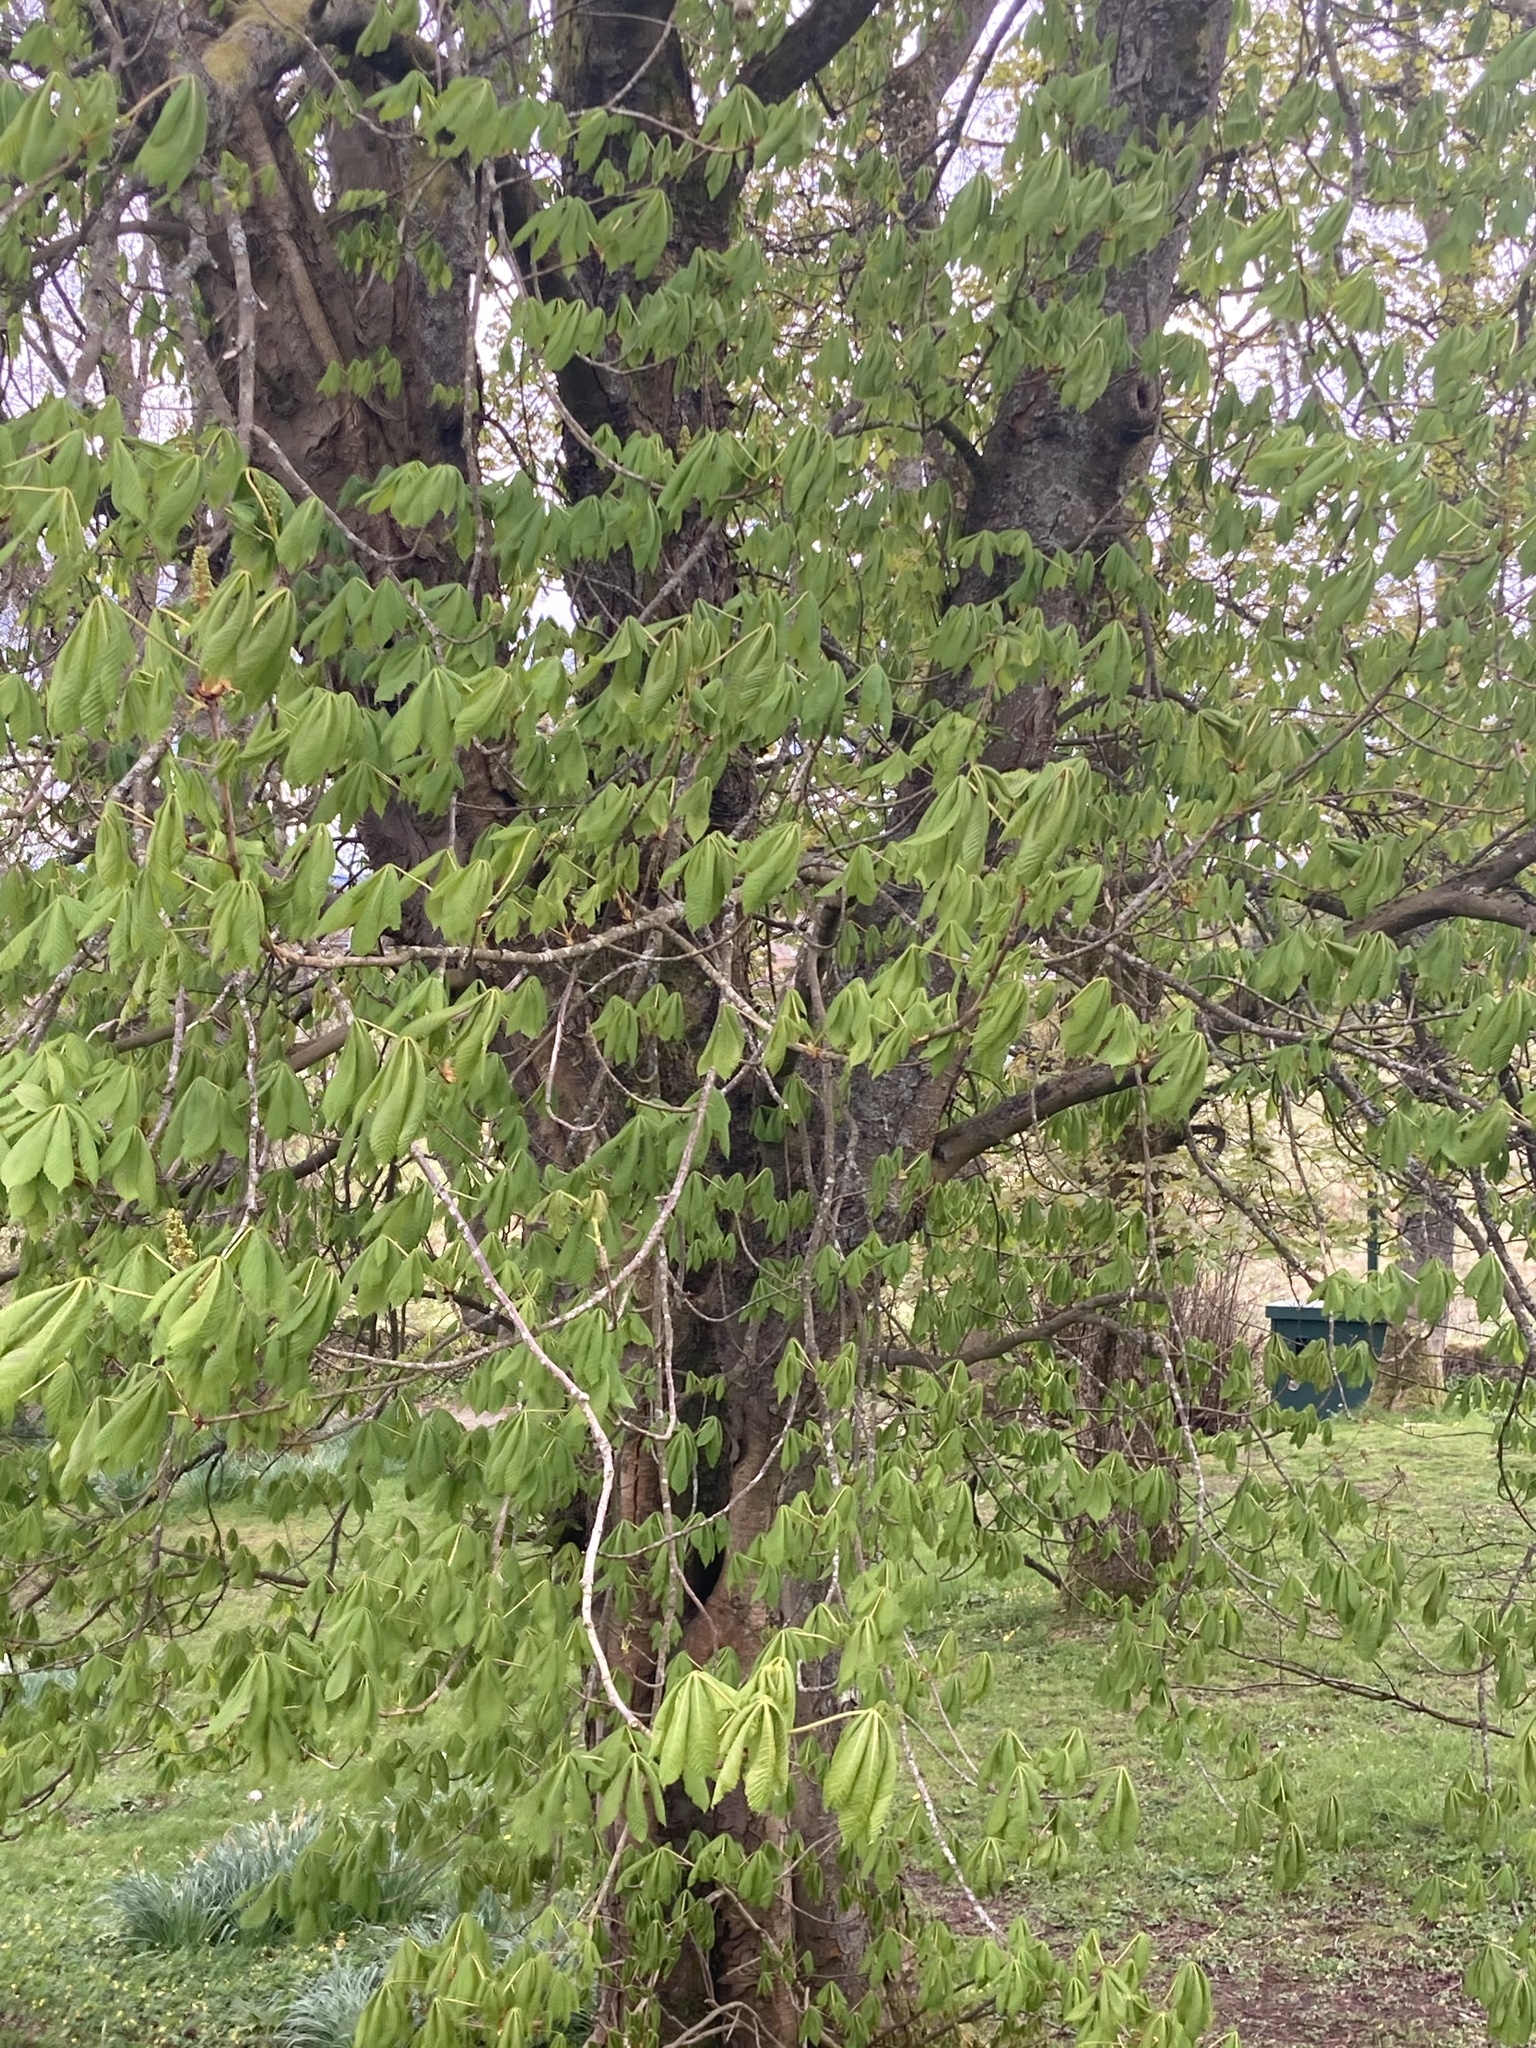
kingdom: Plantae
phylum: Tracheophyta
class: Magnoliopsida
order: Sapindales
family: Sapindaceae
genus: Aesculus
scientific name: Aesculus hippocastanum
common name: Horse-chestnut
